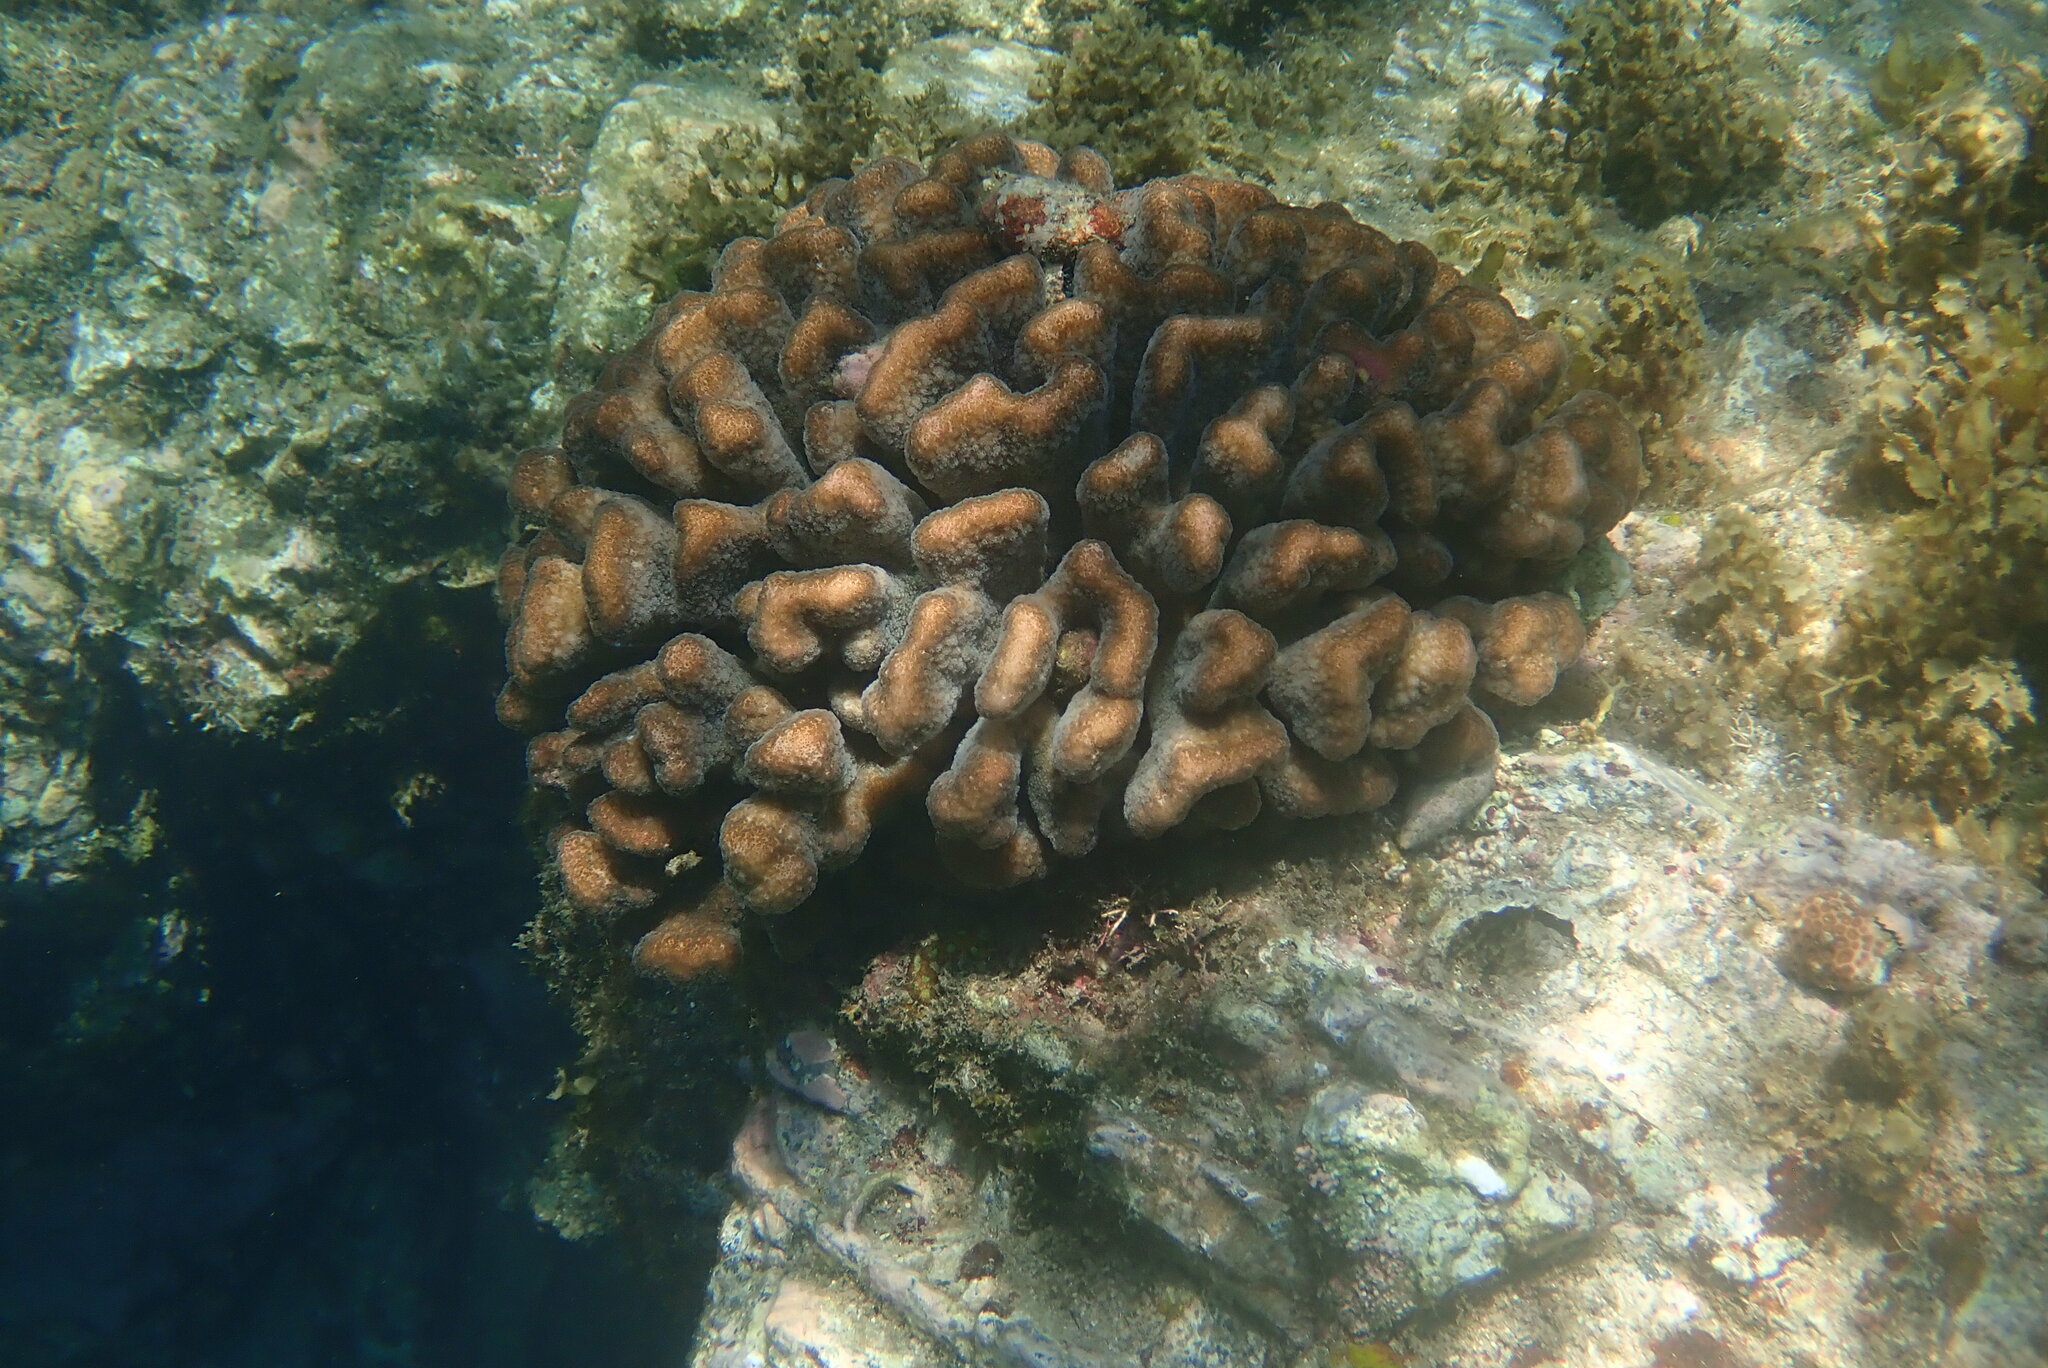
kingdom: Animalia
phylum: Cnidaria
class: Anthozoa
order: Scleractinia
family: Pocilloporidae
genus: Pocillopora
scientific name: Pocillopora meandrina
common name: Cauliflower coral
